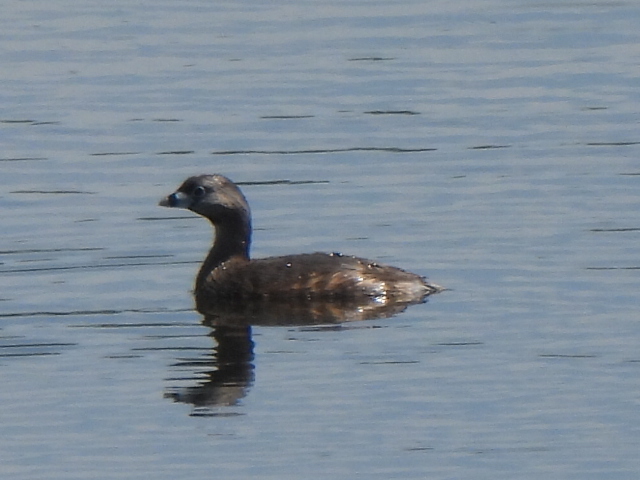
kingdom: Animalia
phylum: Chordata
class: Aves
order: Podicipediformes
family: Podicipedidae
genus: Podilymbus
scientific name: Podilymbus podiceps
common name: Pied-billed grebe
